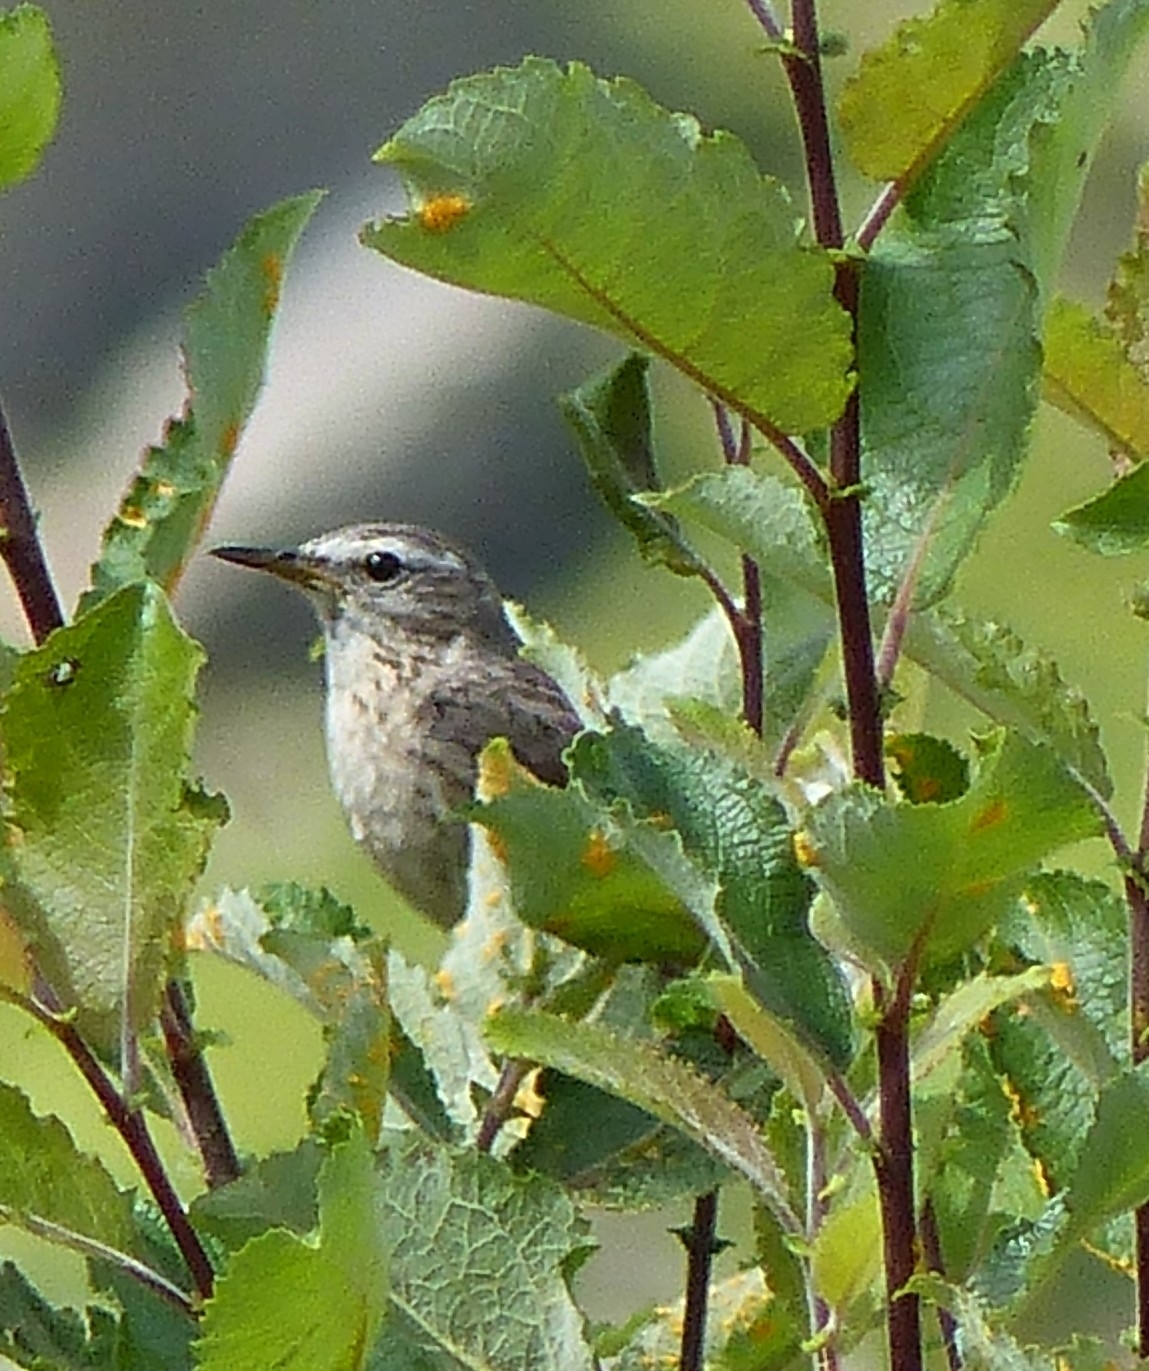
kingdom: Animalia
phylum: Chordata
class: Aves
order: Passeriformes
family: Motacillidae
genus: Anthus
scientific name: Anthus spinoletta
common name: Water pipit
